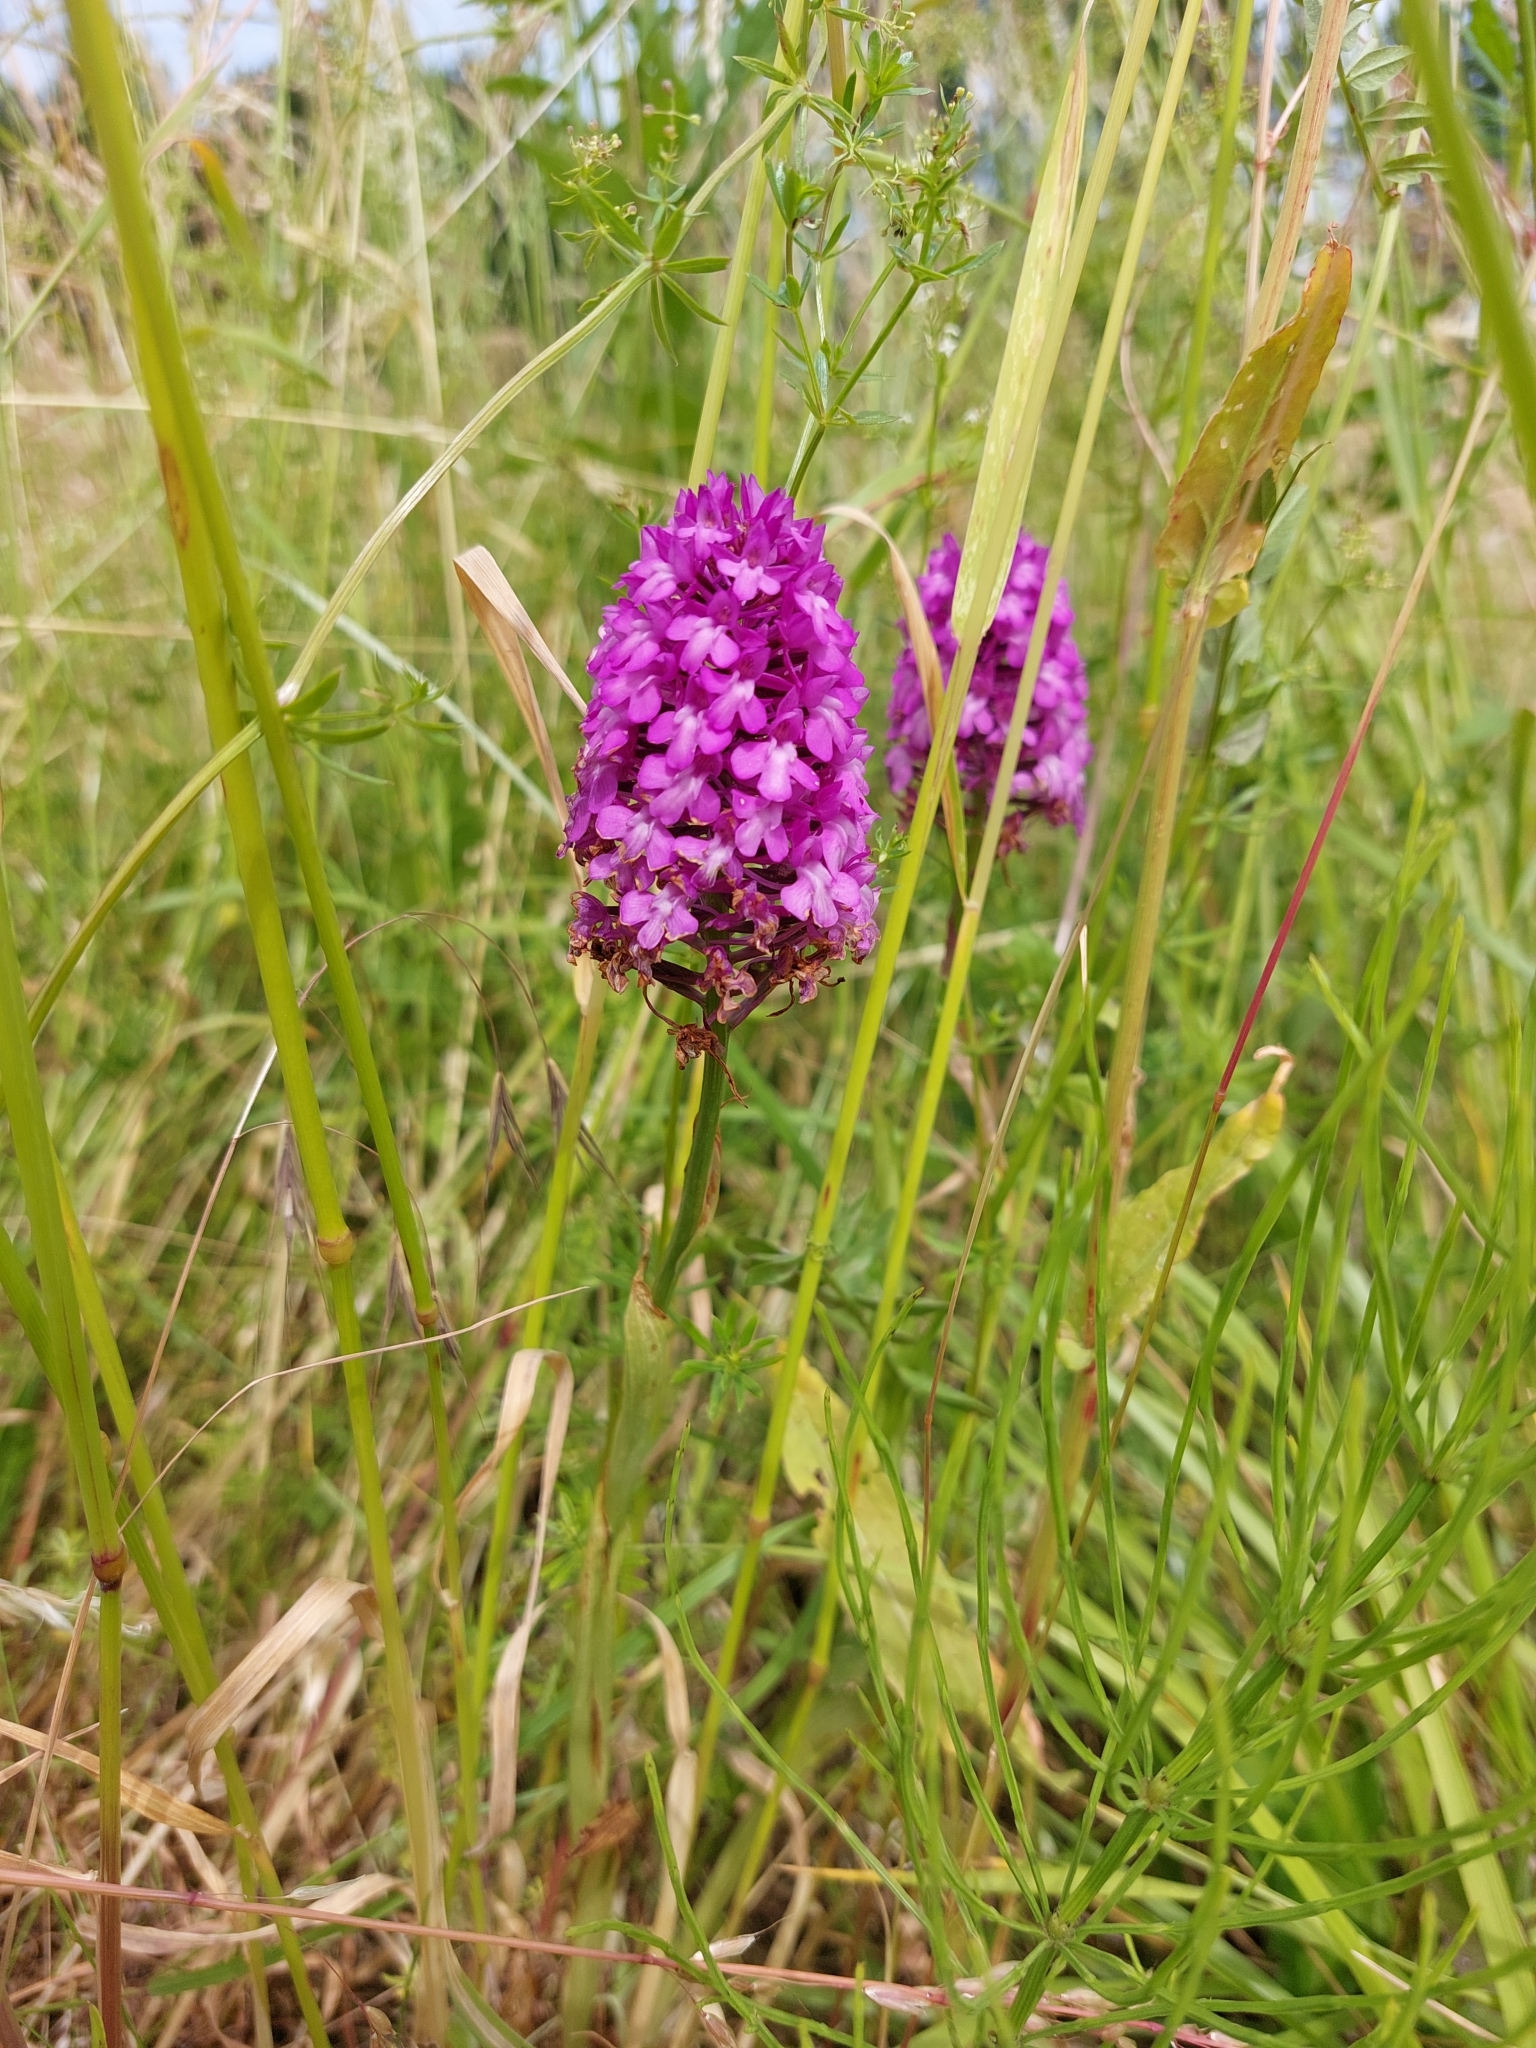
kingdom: Plantae
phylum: Tracheophyta
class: Liliopsida
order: Asparagales
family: Orchidaceae
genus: Anacamptis
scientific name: Anacamptis pyramidalis
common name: Pyramidal orchid
